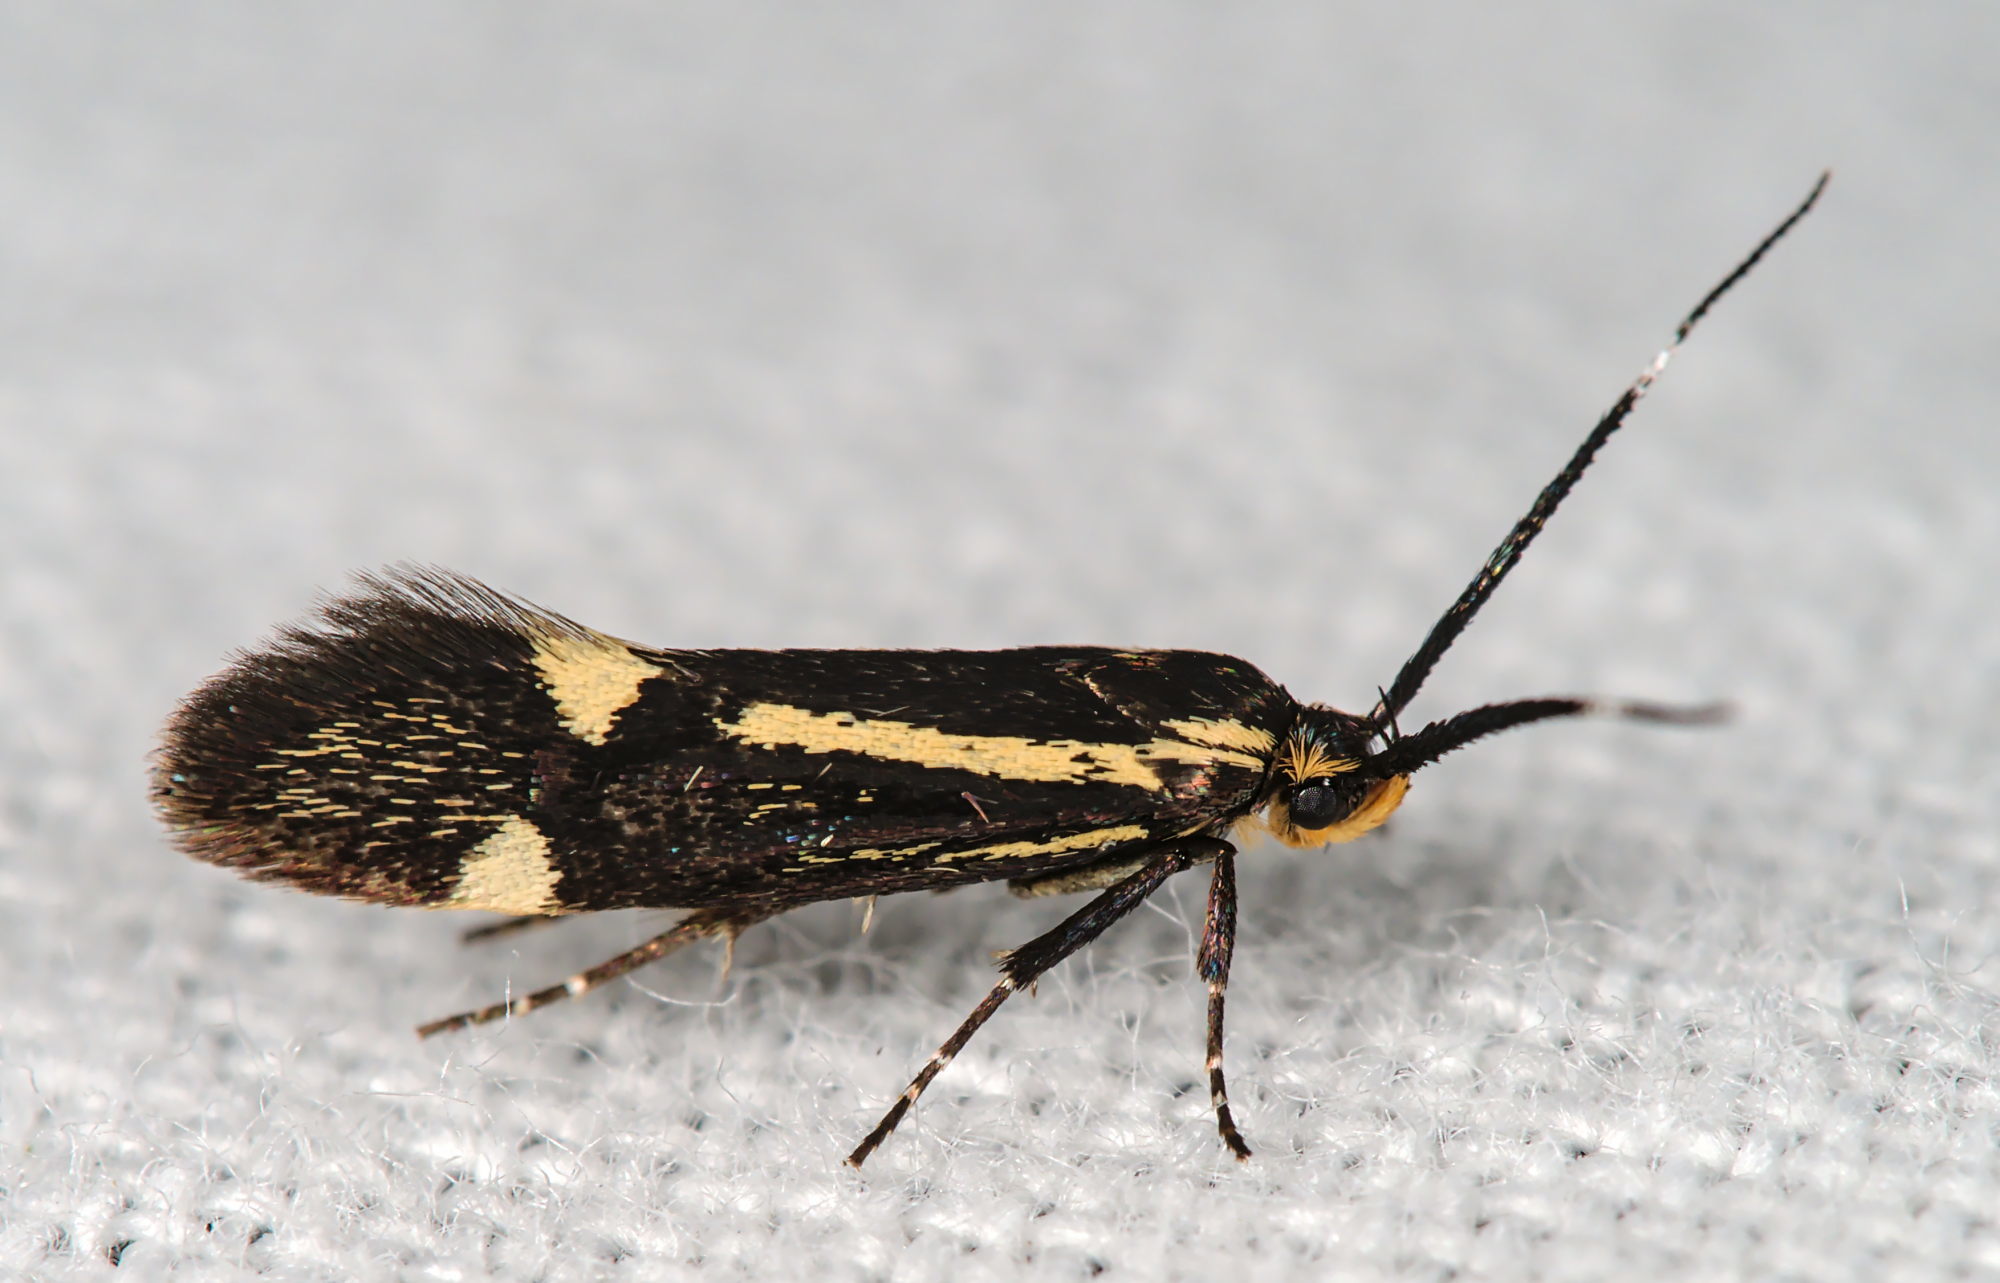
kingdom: Animalia
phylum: Arthropoda
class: Insecta
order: Lepidoptera
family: Oecophoridae
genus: Dafa
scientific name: Dafa Esperia sulphurella
